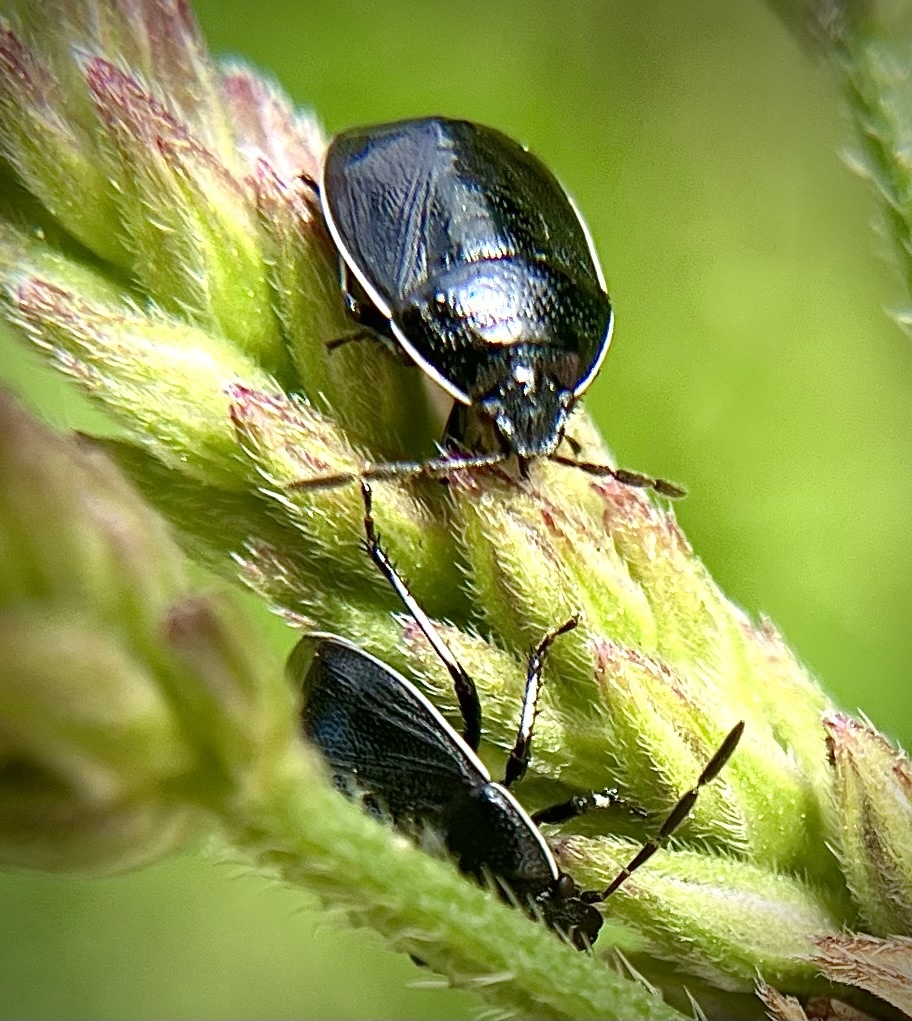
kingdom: Animalia
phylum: Arthropoda
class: Insecta
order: Hemiptera
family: Cydnidae
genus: Sehirus
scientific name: Sehirus cinctus
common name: White-margined burrower bug
